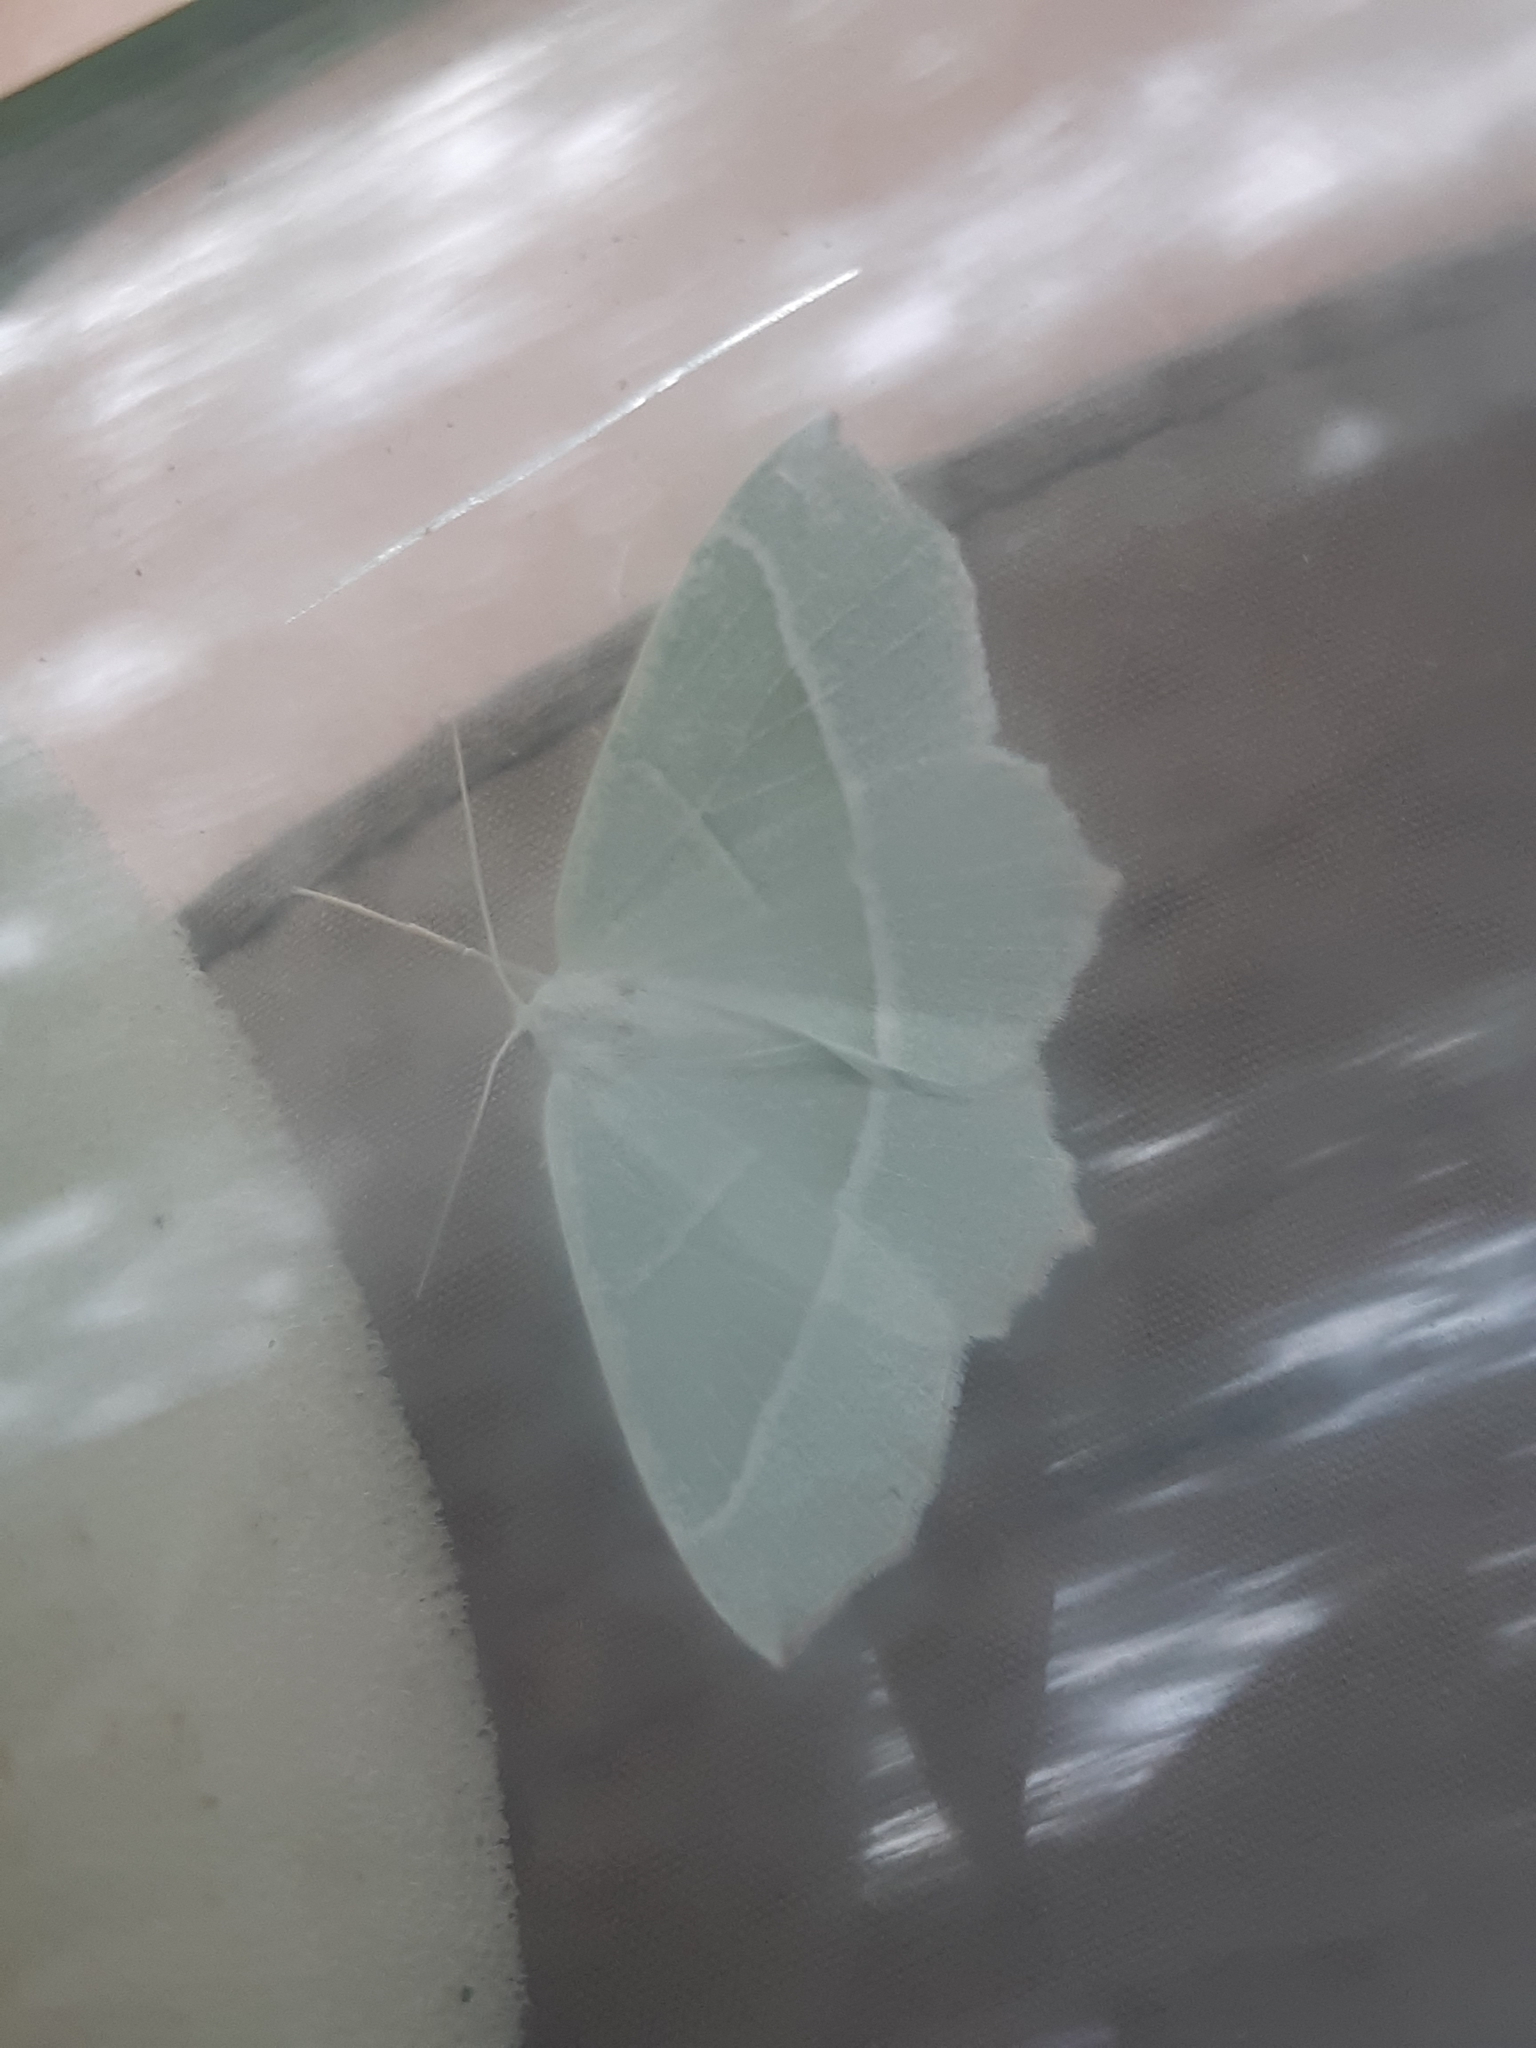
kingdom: Animalia
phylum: Arthropoda
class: Insecta
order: Lepidoptera
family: Geometridae
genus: Campaea
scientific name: Campaea margaritaria
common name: Light emerald
